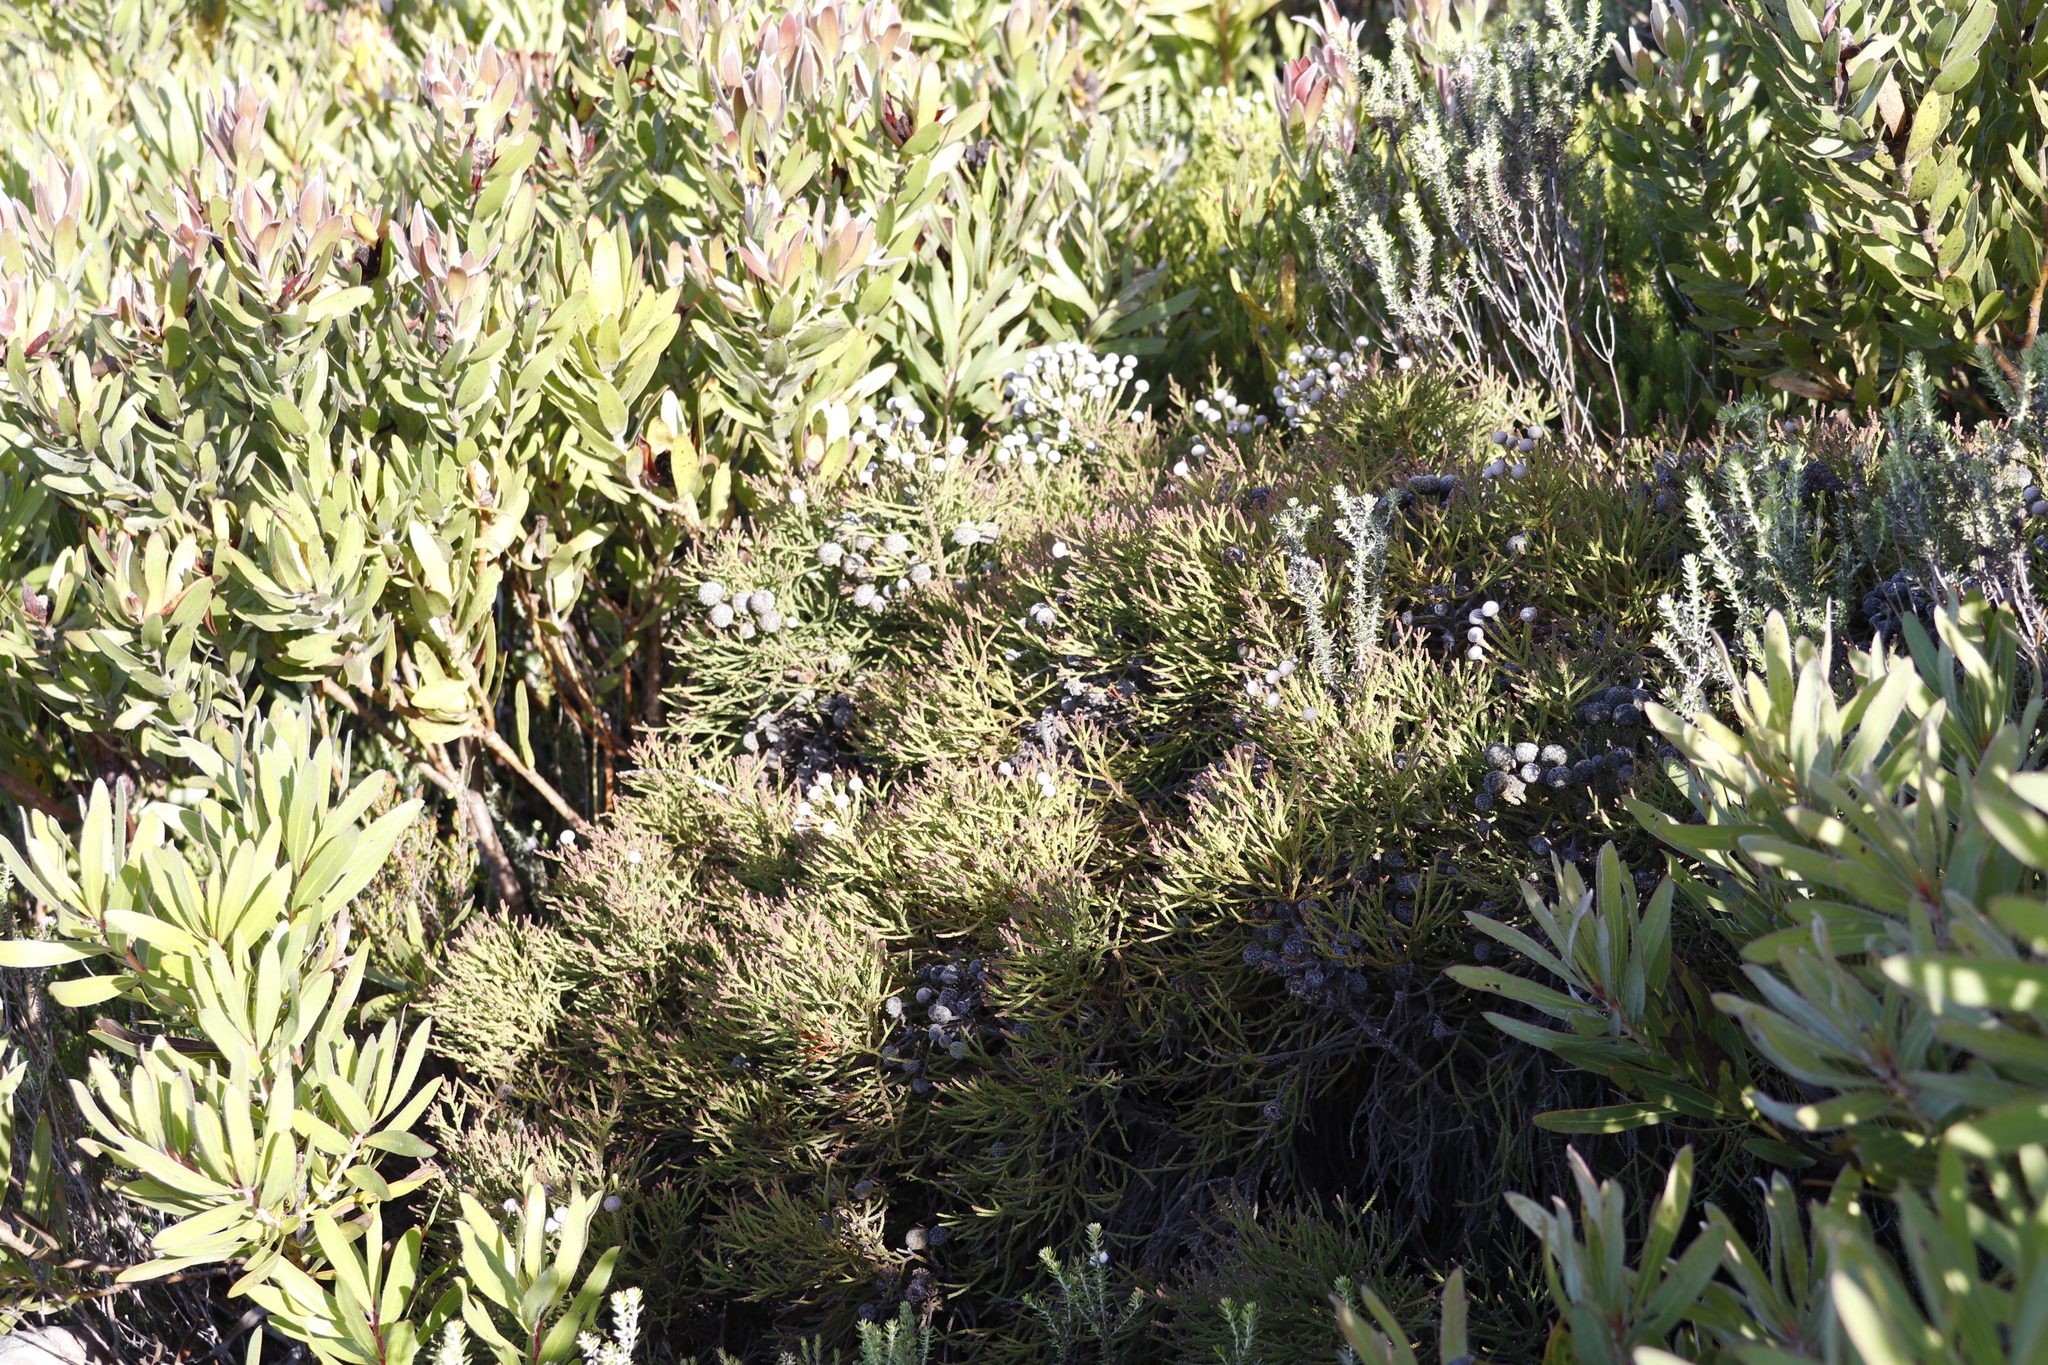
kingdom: Plantae
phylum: Tracheophyta
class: Magnoliopsida
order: Bruniales
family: Bruniaceae
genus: Brunia
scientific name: Brunia noduliflora
